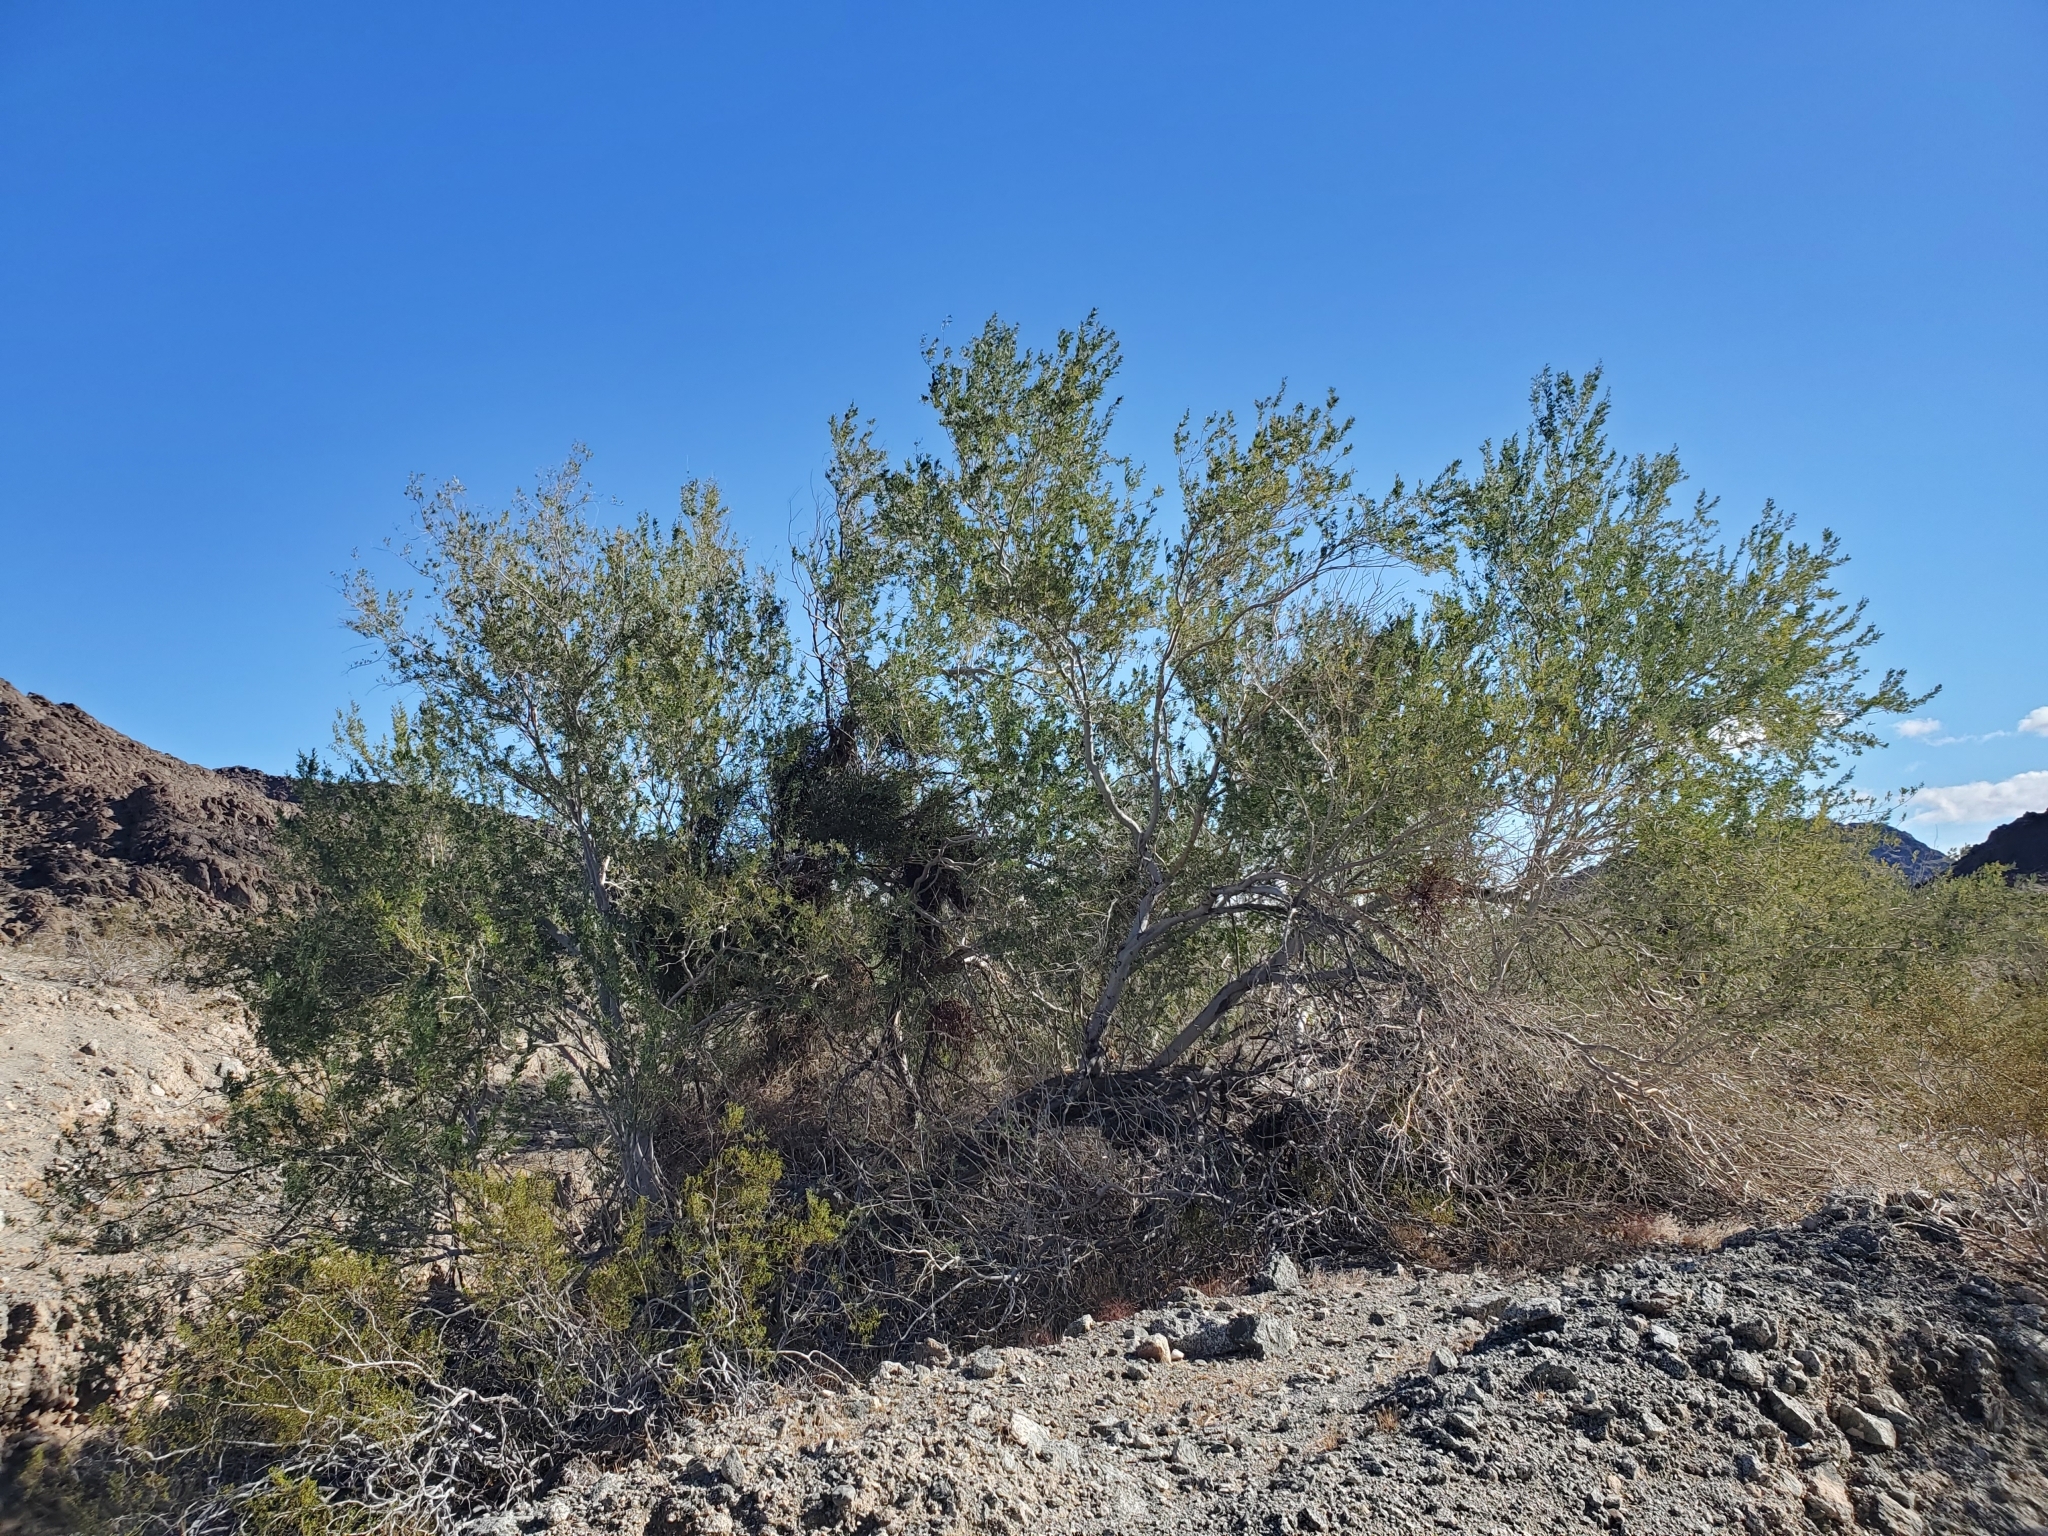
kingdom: Plantae
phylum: Tracheophyta
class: Magnoliopsida
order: Fabales
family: Fabaceae
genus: Olneya
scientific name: Olneya tesota
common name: Desert ironwood
